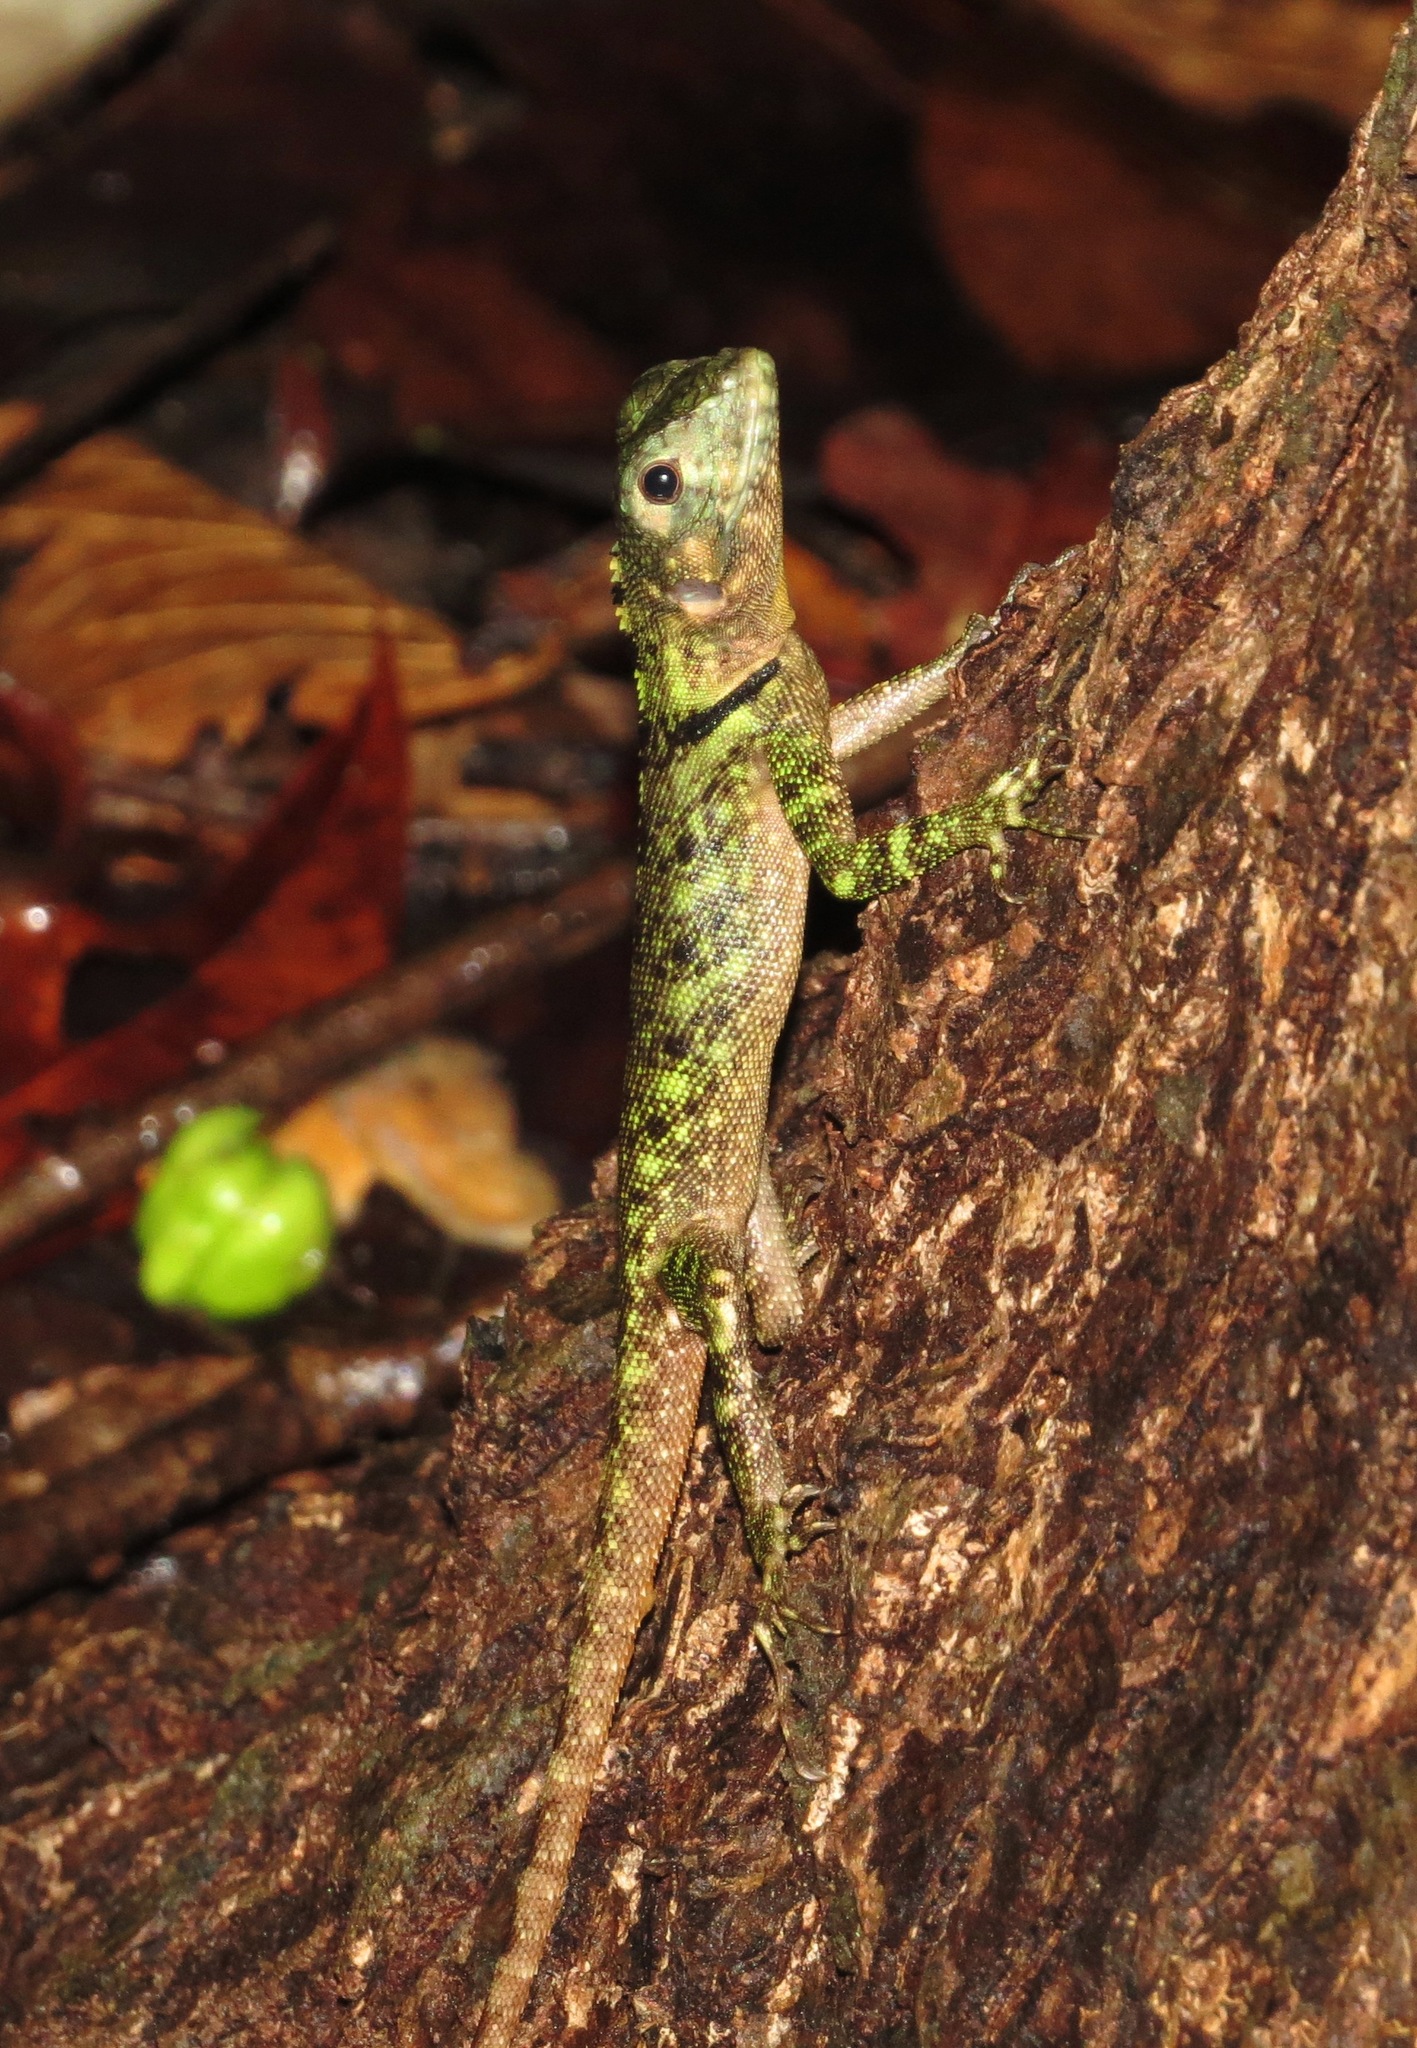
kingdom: Animalia
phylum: Chordata
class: Squamata
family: Tropiduridae
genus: Plica
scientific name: Plica umbra
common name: Harlequin racerunner
